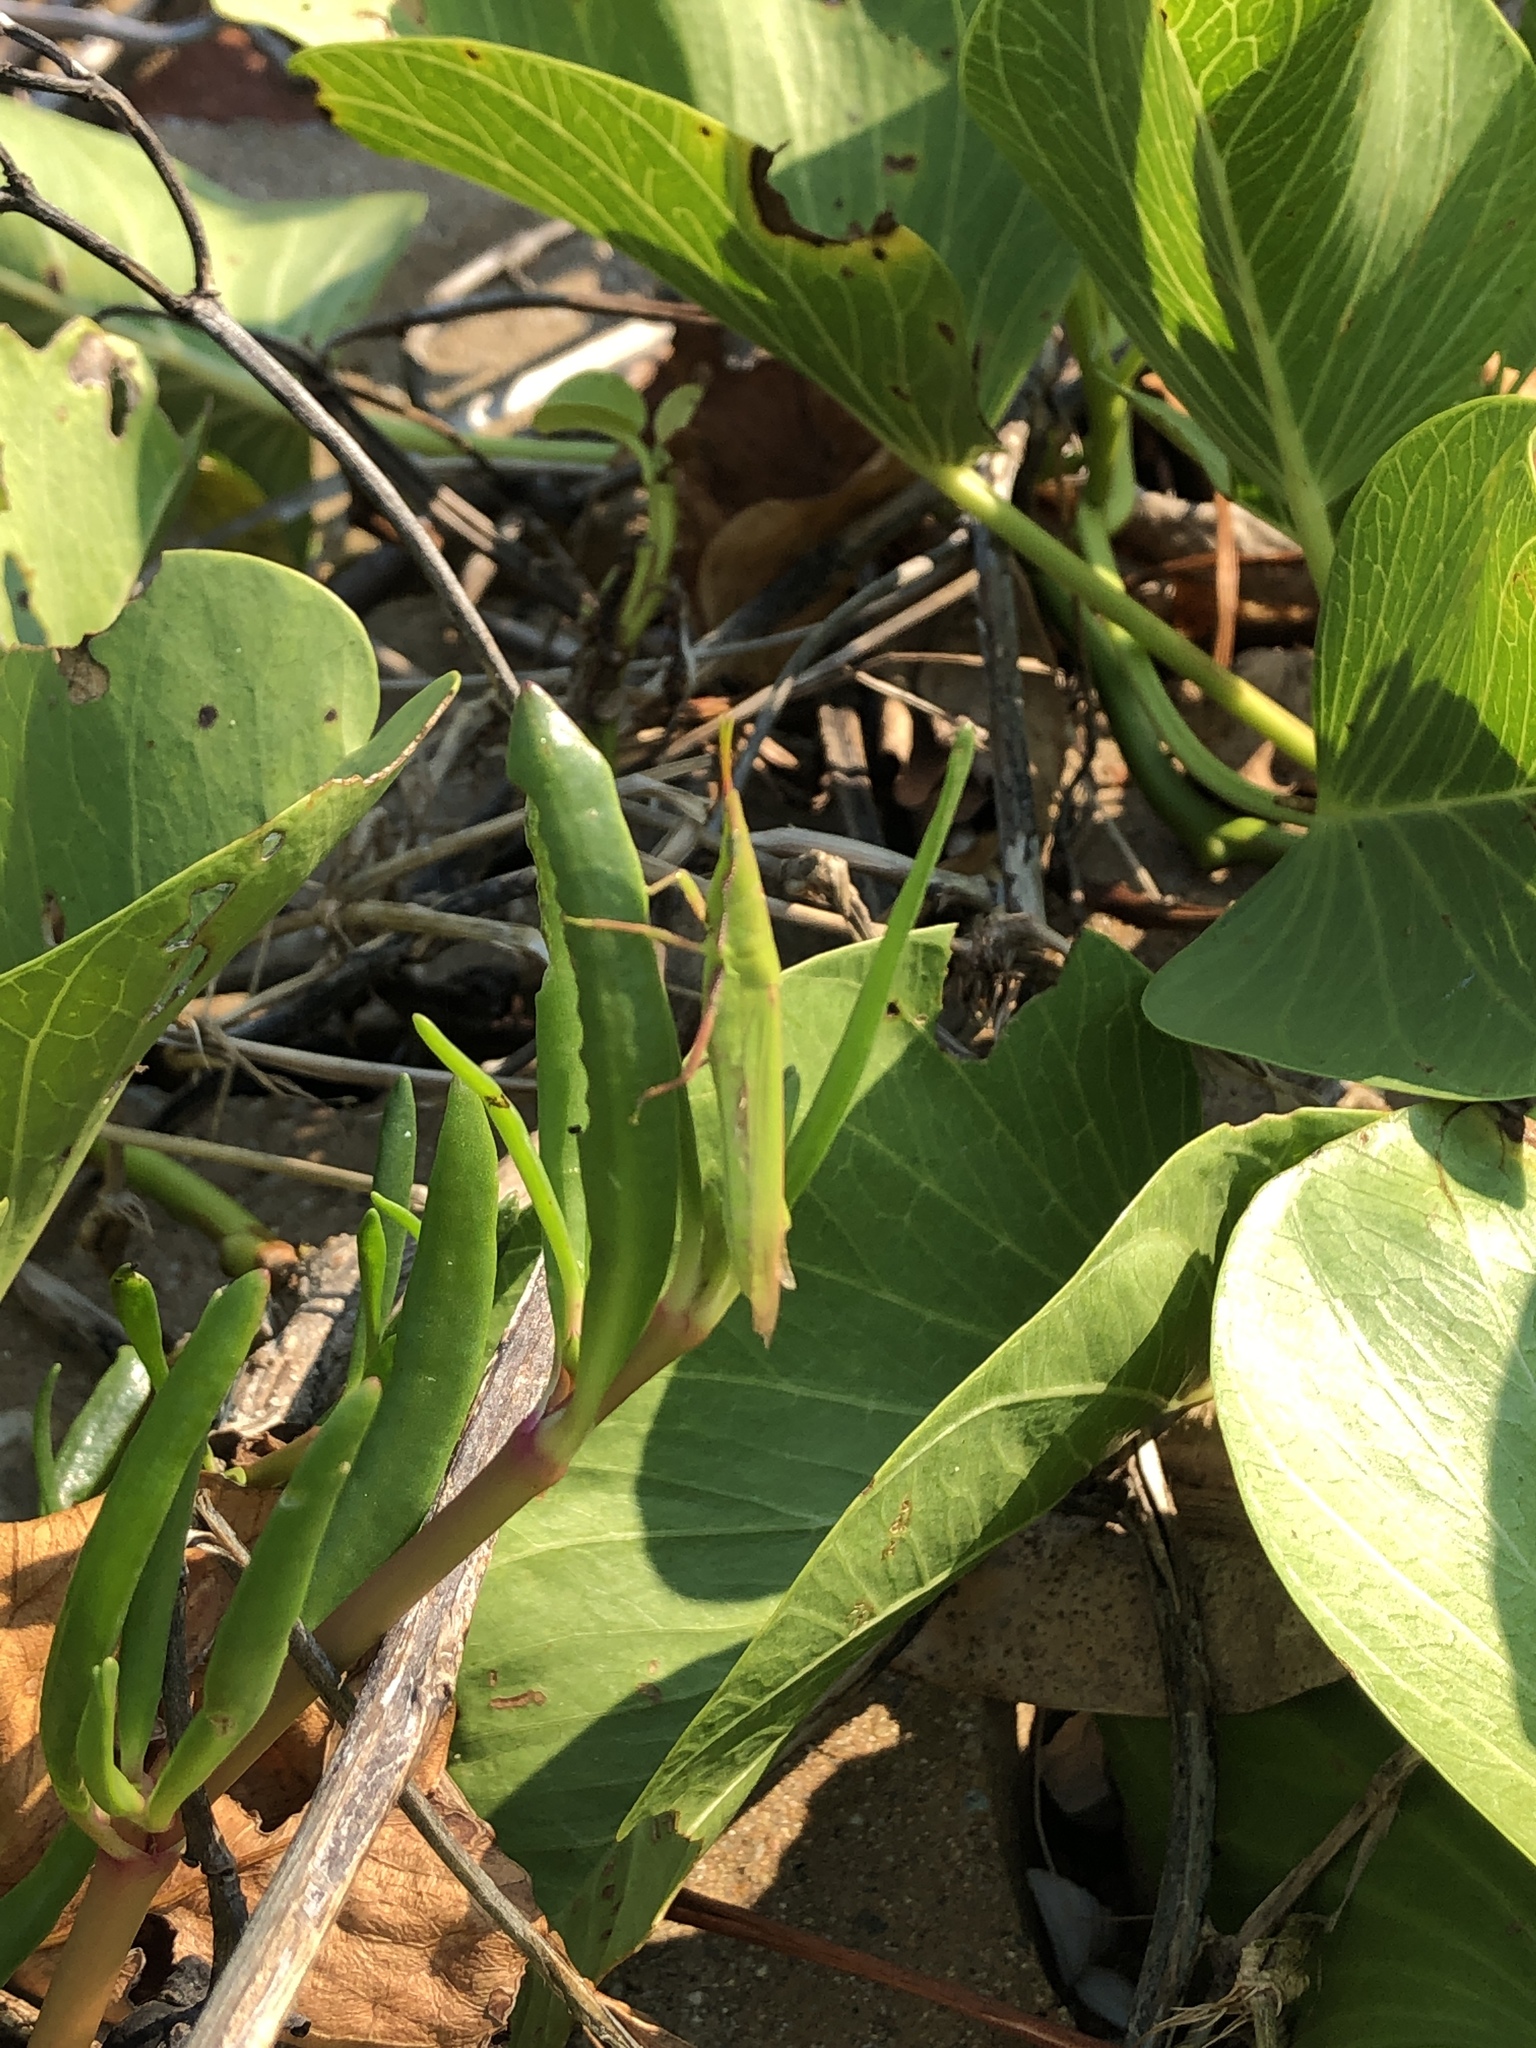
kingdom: Animalia
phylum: Arthropoda
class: Insecta
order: Orthoptera
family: Pyrgomorphidae
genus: Atractomorpha
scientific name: Atractomorpha similis
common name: Northern grass pyrgomorph
